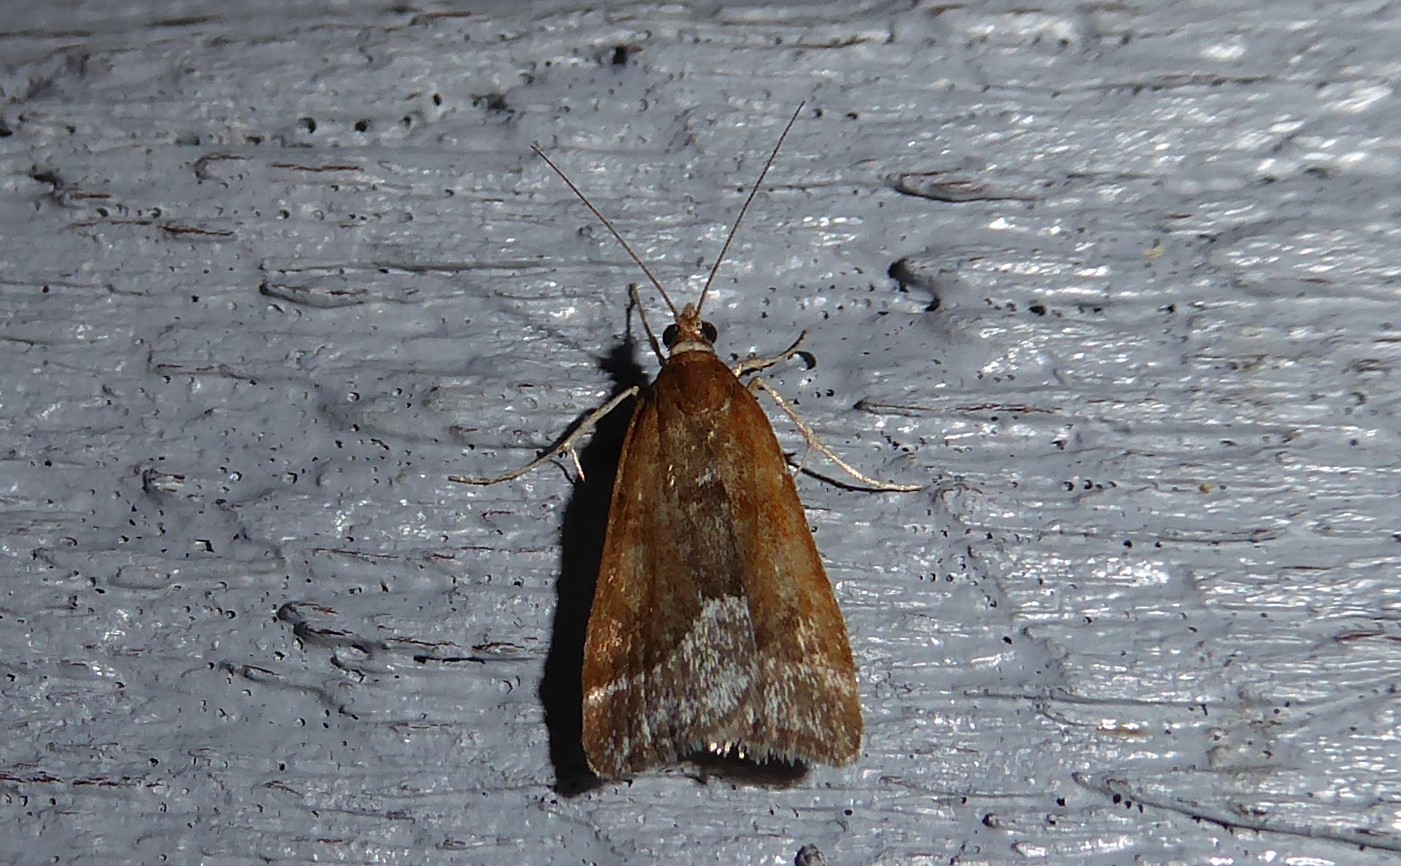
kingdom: Animalia
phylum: Arthropoda
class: Insecta
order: Lepidoptera
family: Crambidae
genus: Eudonia
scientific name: Eudonia feredayi
